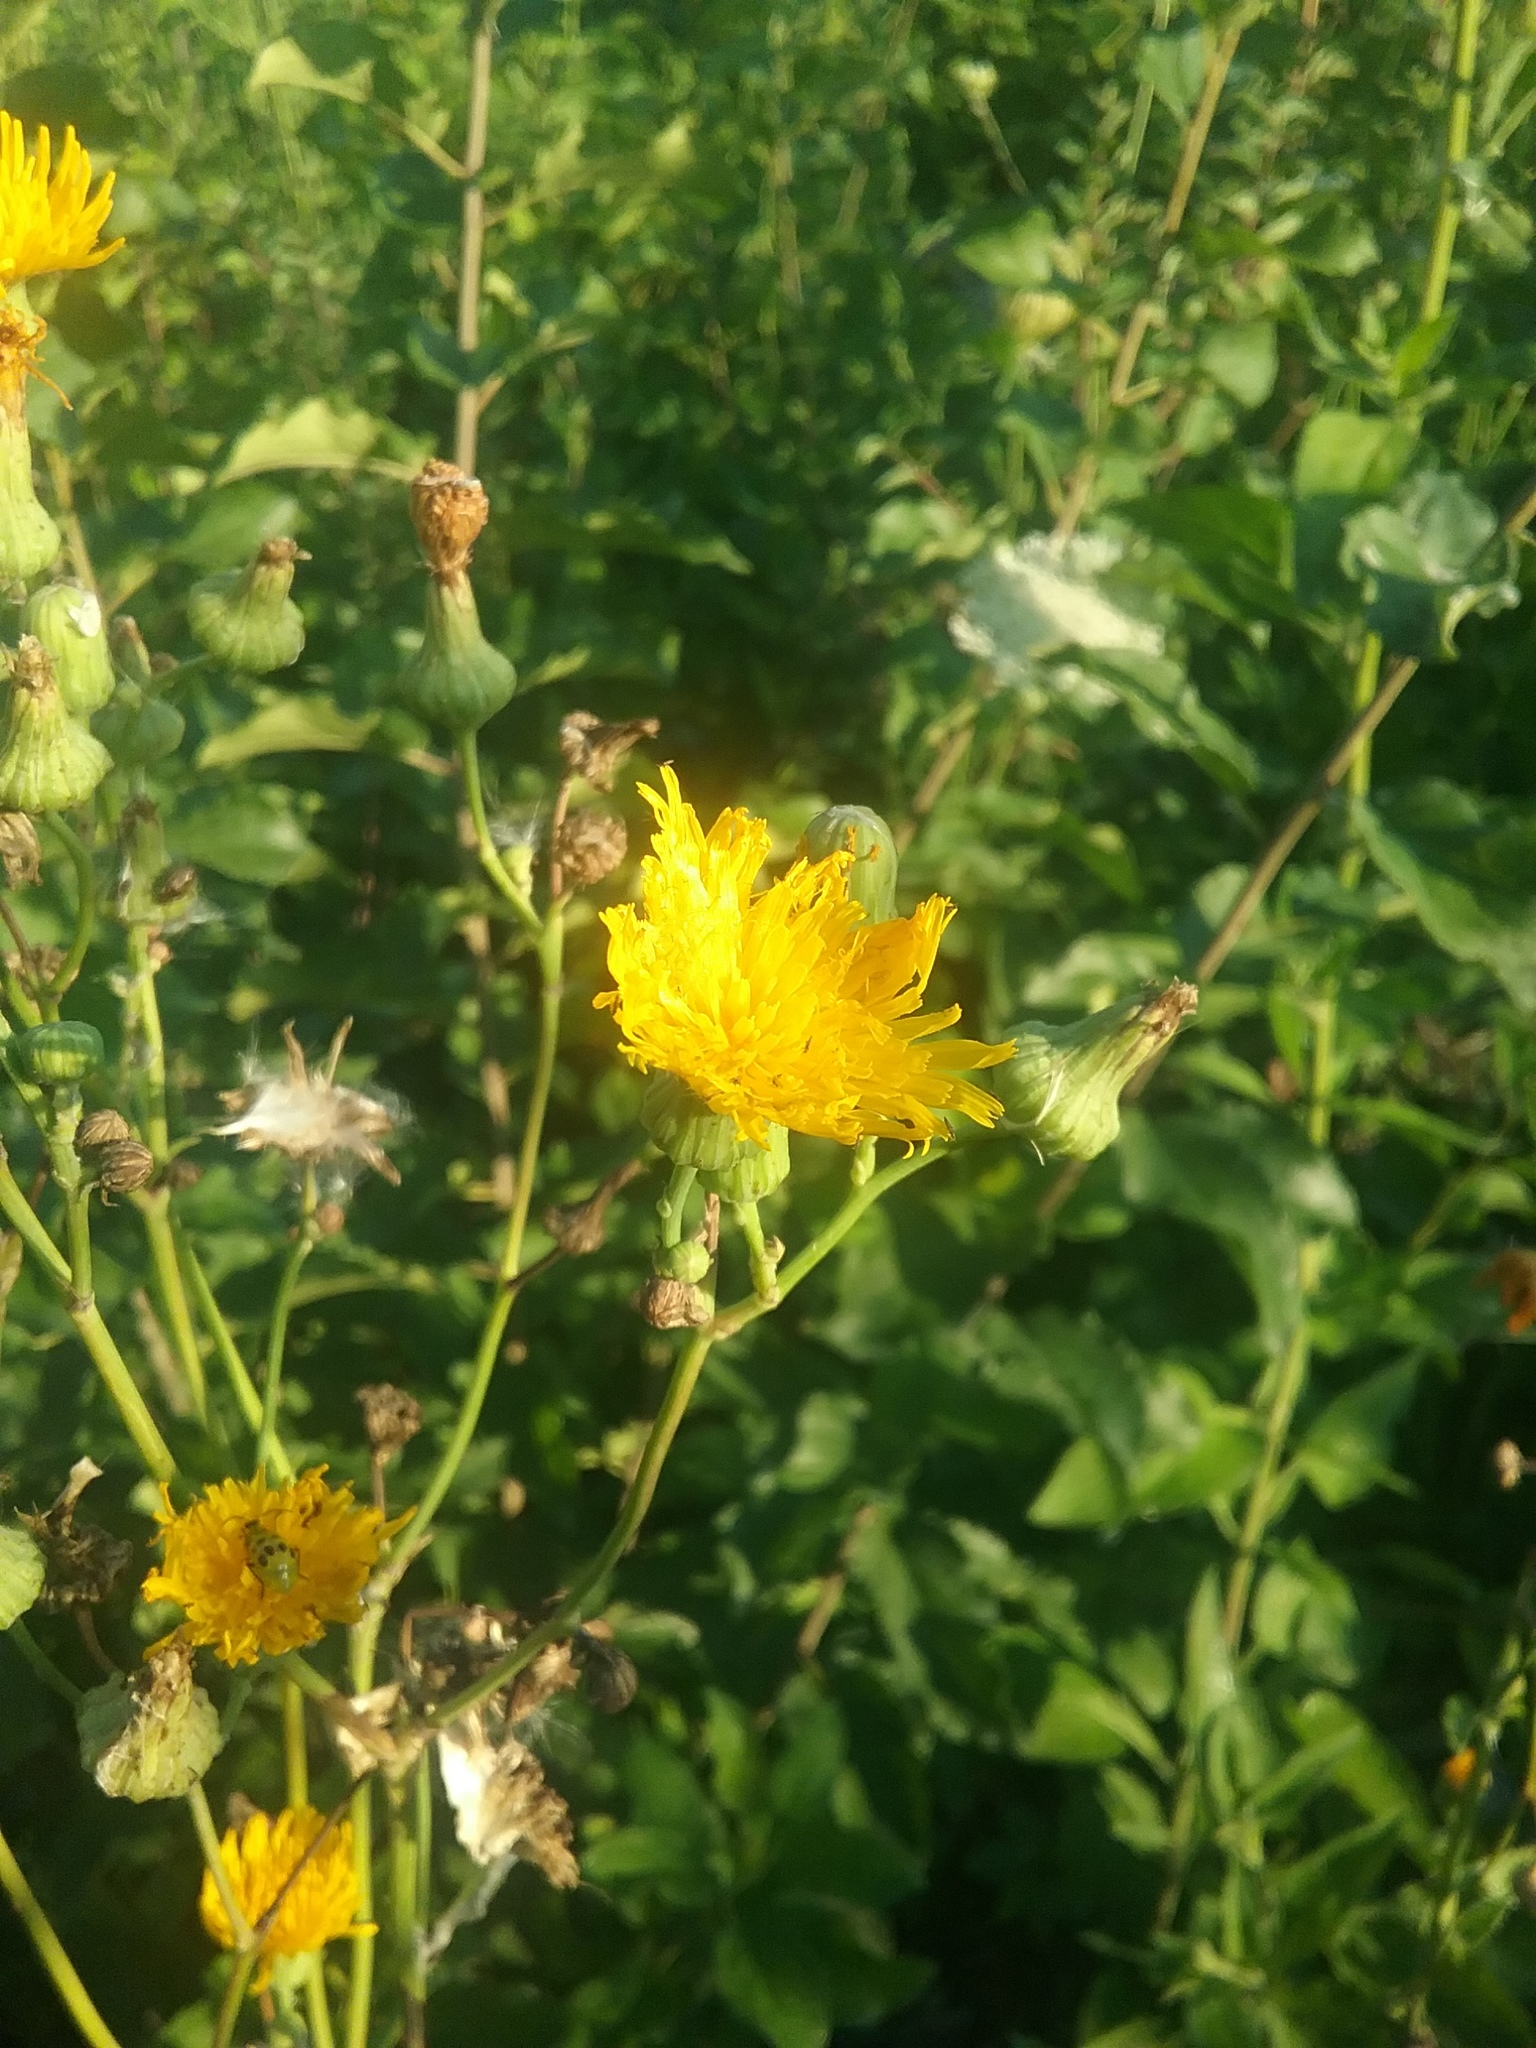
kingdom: Plantae
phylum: Tracheophyta
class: Magnoliopsida
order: Asterales
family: Asteraceae
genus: Sonchus
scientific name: Sonchus arvensis
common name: Perennial sow-thistle
